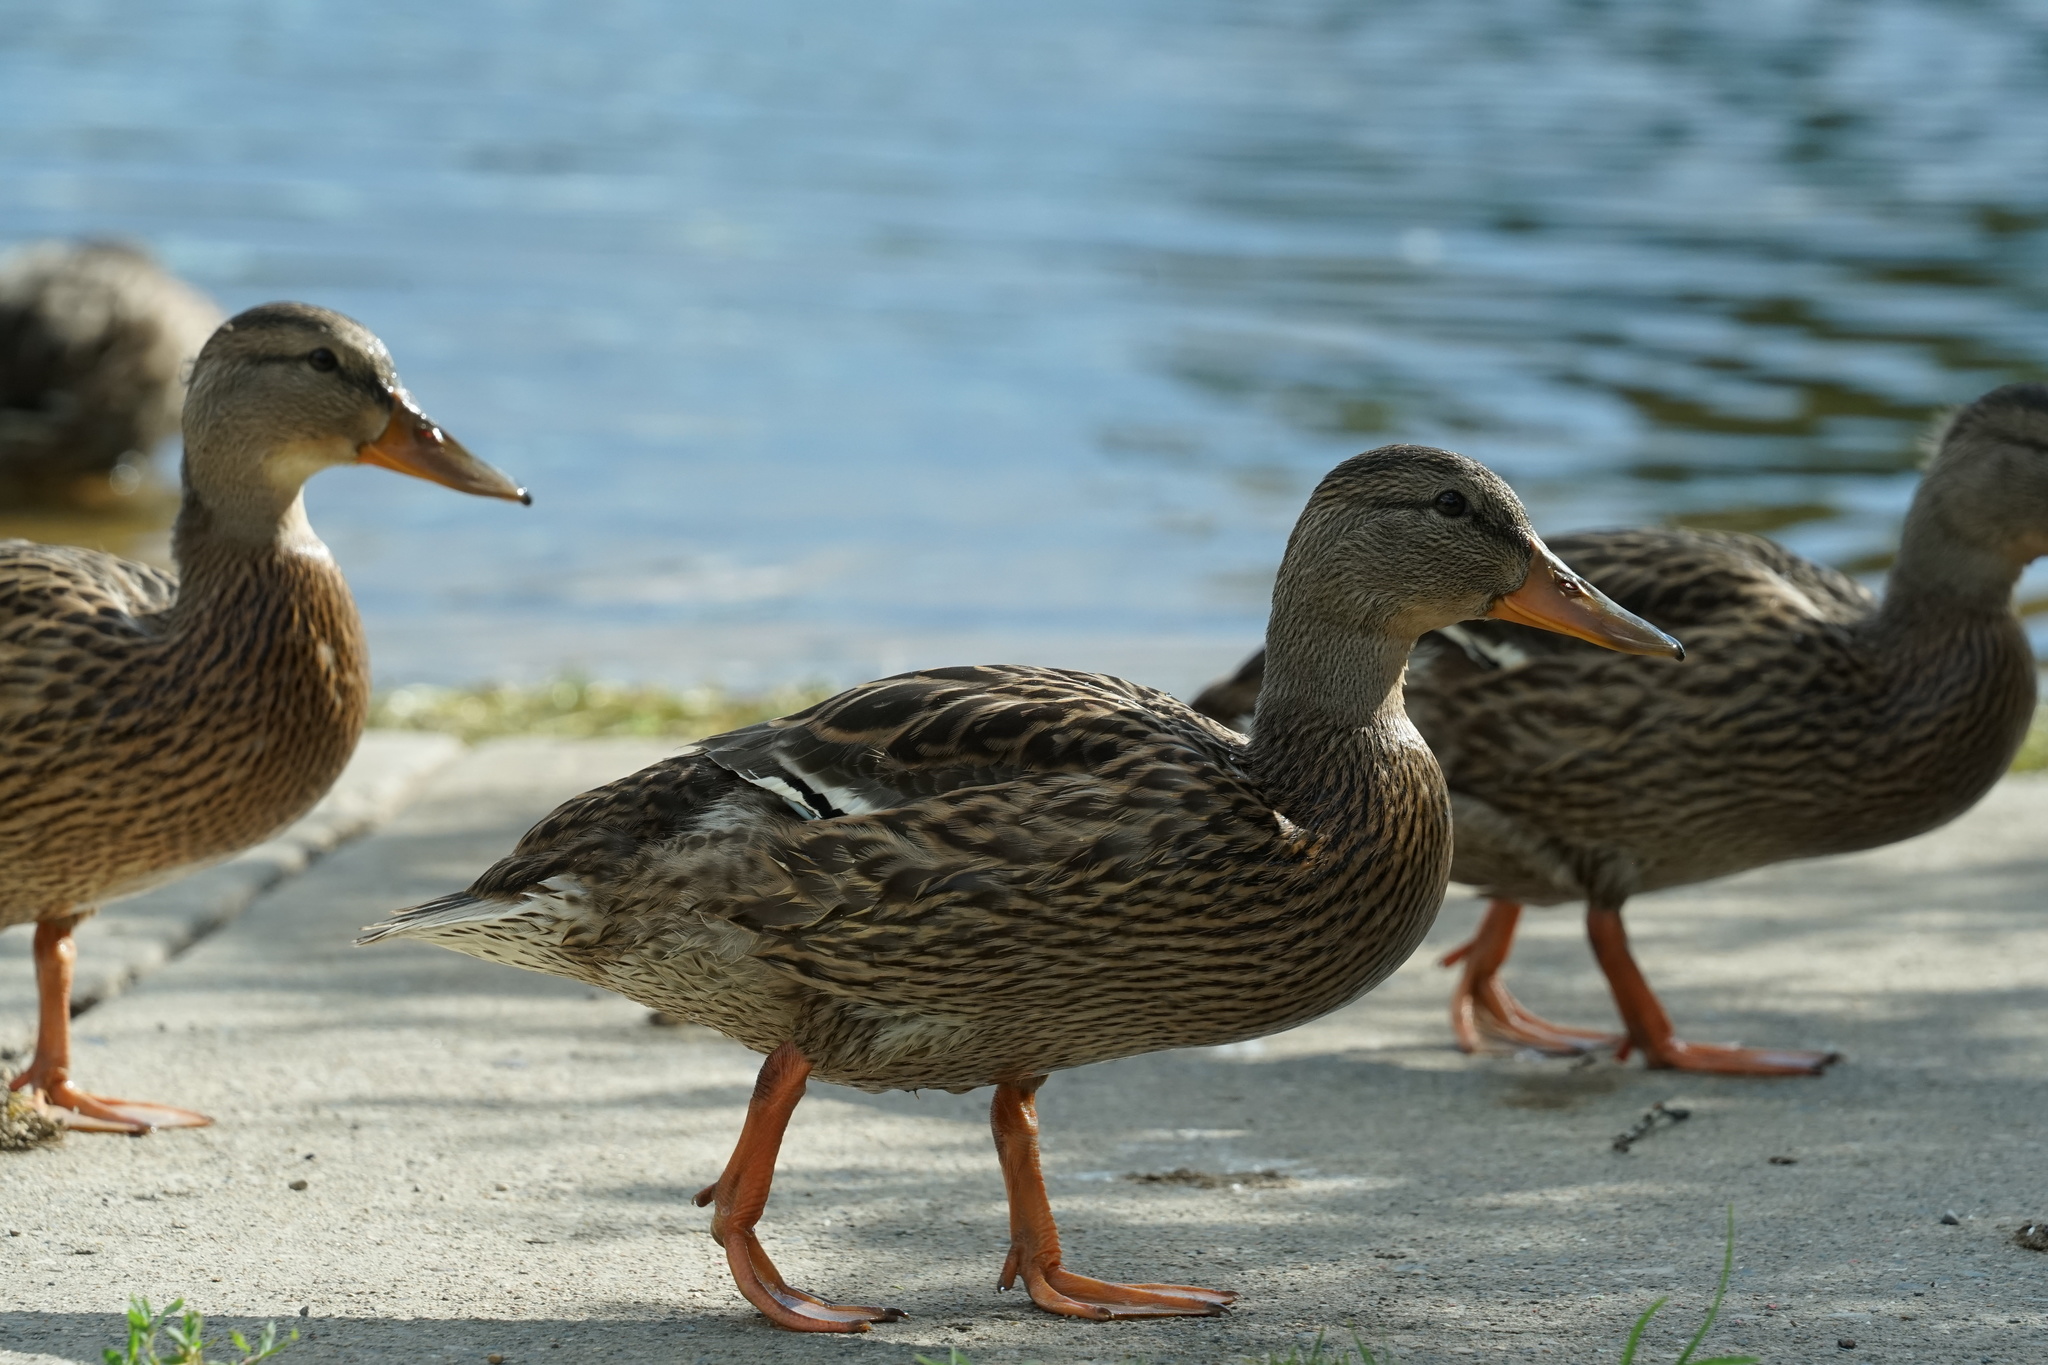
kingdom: Animalia
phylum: Chordata
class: Aves
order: Anseriformes
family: Anatidae
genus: Anas
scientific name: Anas platyrhynchos
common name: Mallard
